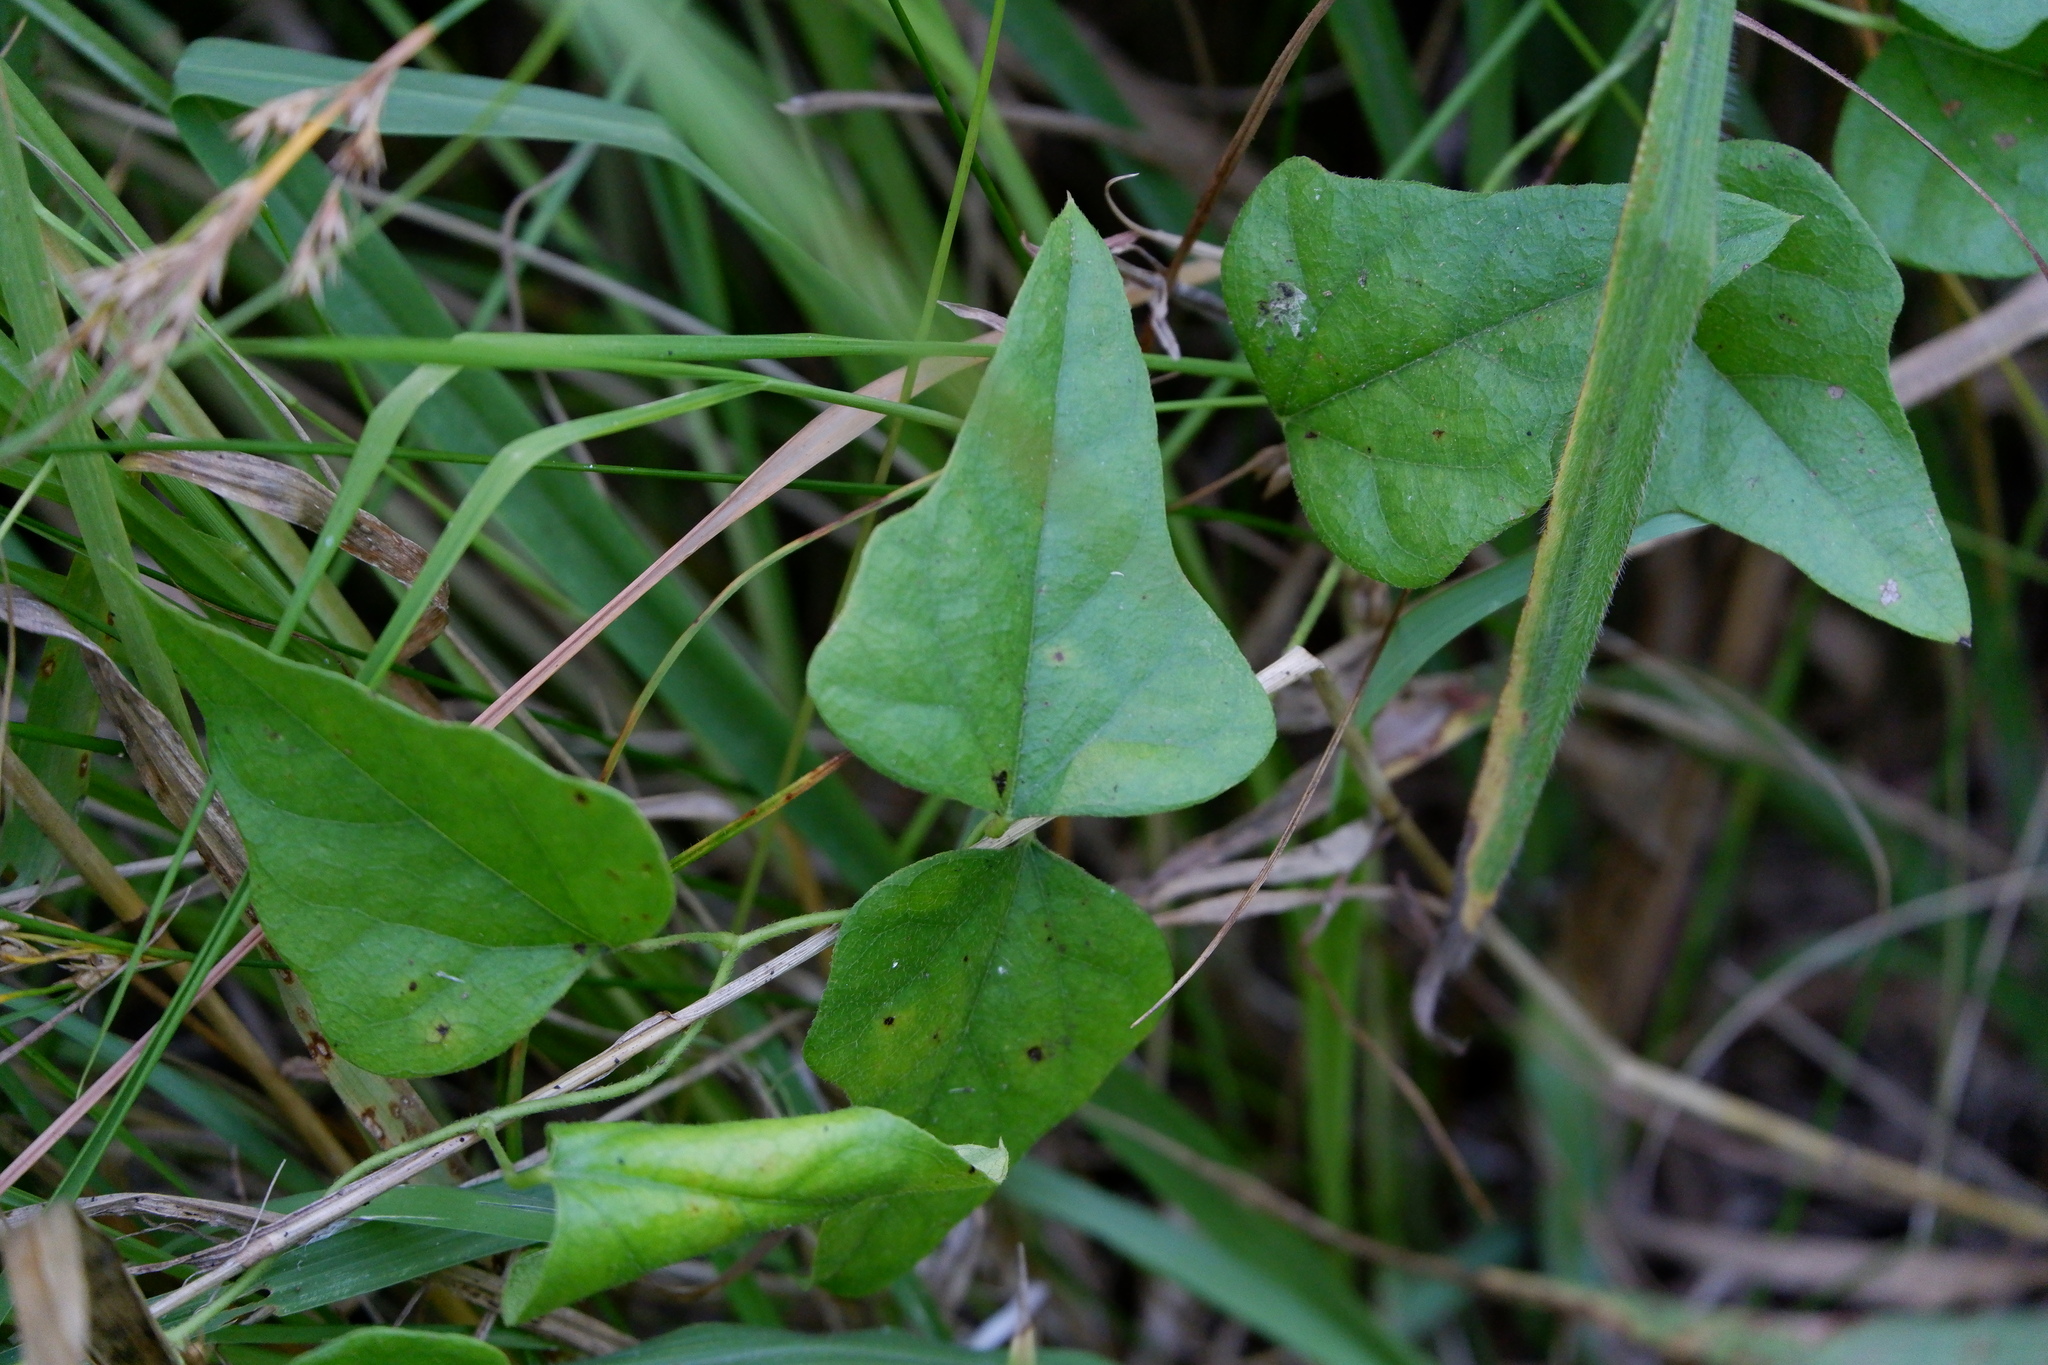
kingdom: Plantae
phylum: Tracheophyta
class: Magnoliopsida
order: Ranunculales
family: Menispermaceae
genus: Cocculus
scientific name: Cocculus carolinus
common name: Carolina moonseed
